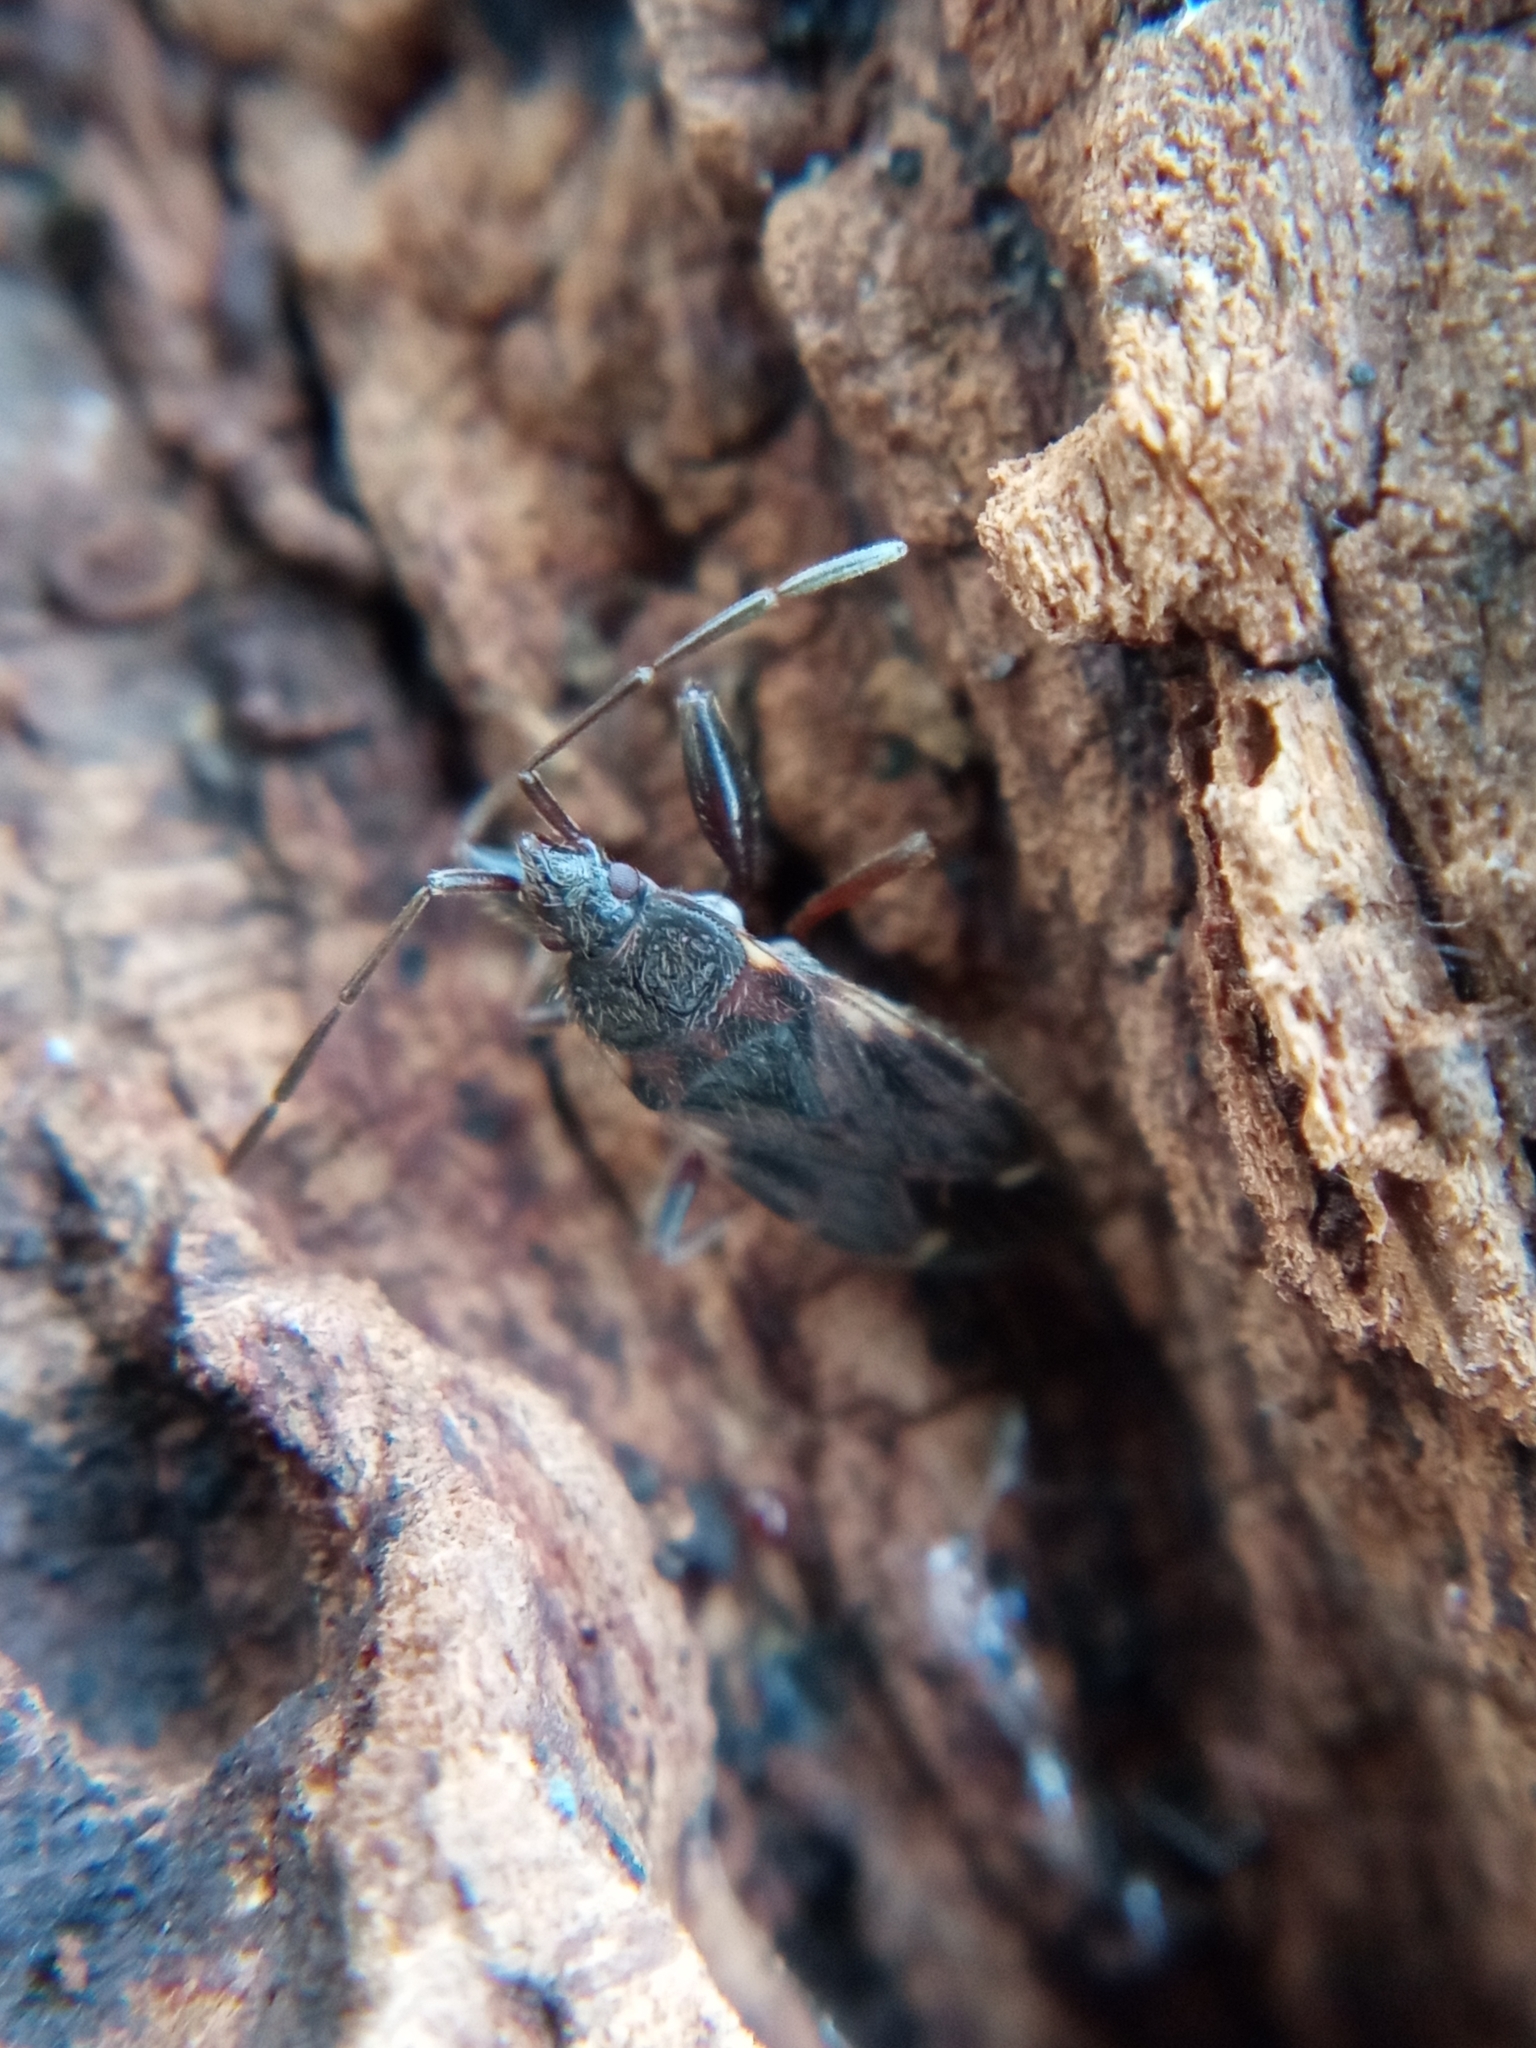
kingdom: Animalia
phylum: Arthropoda
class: Insecta
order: Hemiptera
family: Rhyparochromidae
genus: Eremocoris
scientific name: Eremocoris podagricus
